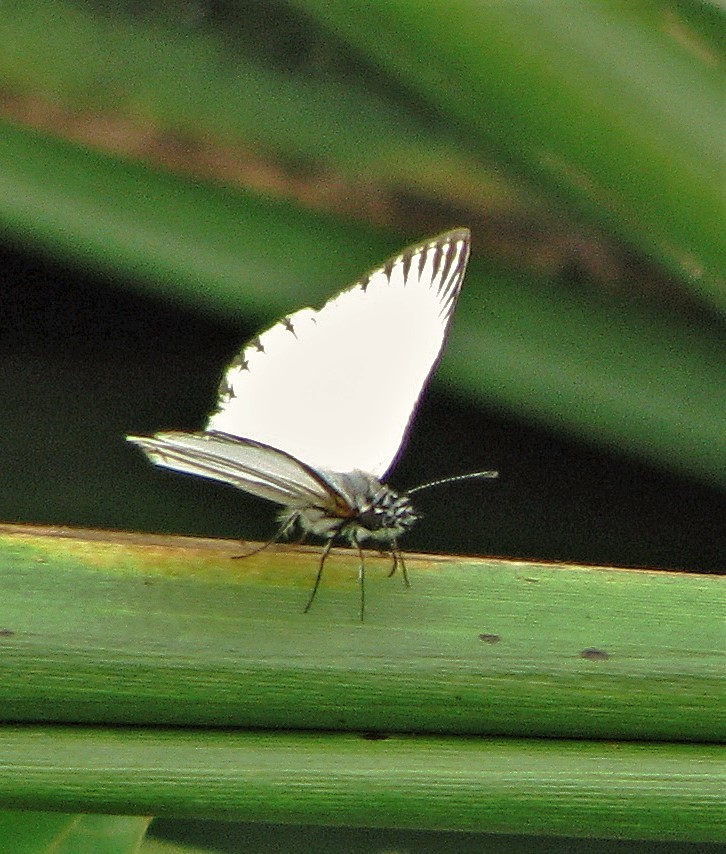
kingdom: Animalia
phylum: Arthropoda
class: Insecta
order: Lepidoptera
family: Hesperiidae
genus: Heliopetes
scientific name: Heliopetes arsalte
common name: Veined white-skipper
